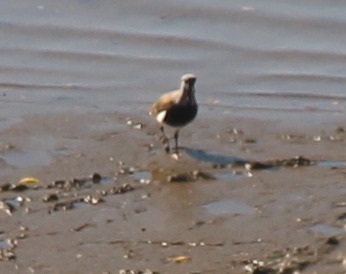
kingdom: Animalia
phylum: Chordata
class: Aves
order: Charadriiformes
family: Charadriidae
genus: Vanellus
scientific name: Vanellus chilensis
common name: Southern lapwing
